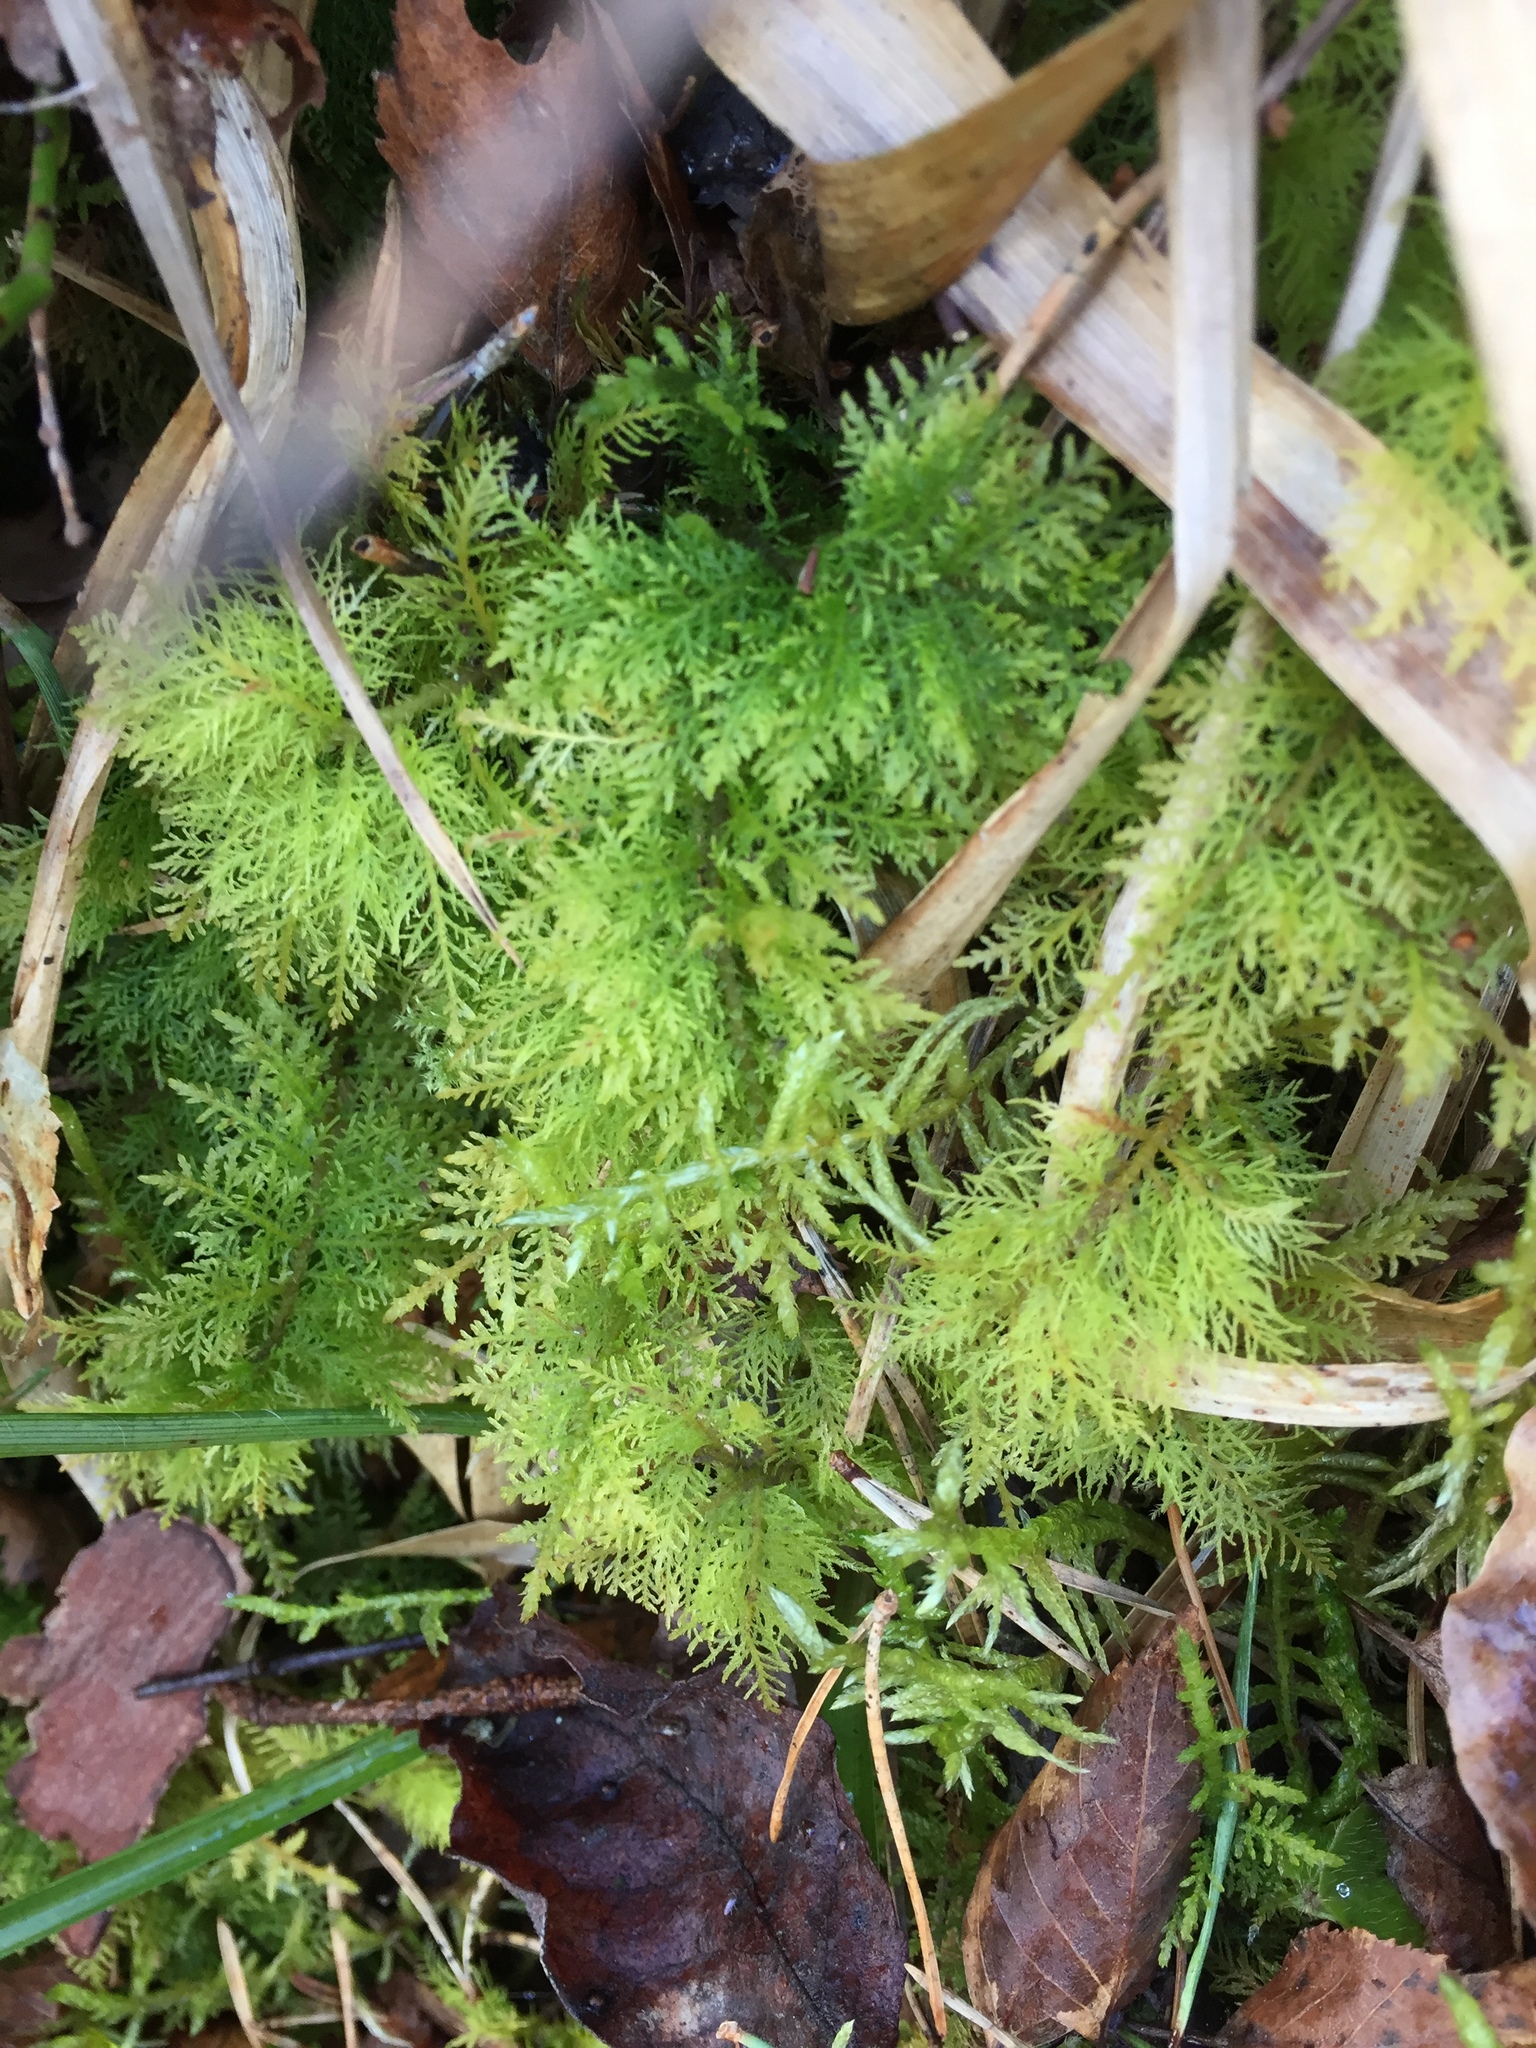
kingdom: Plantae
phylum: Bryophyta
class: Bryopsida
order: Hypnales
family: Thuidiaceae
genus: Thuidium
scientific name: Thuidium tamariscinum
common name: Common tamarisk-moss
